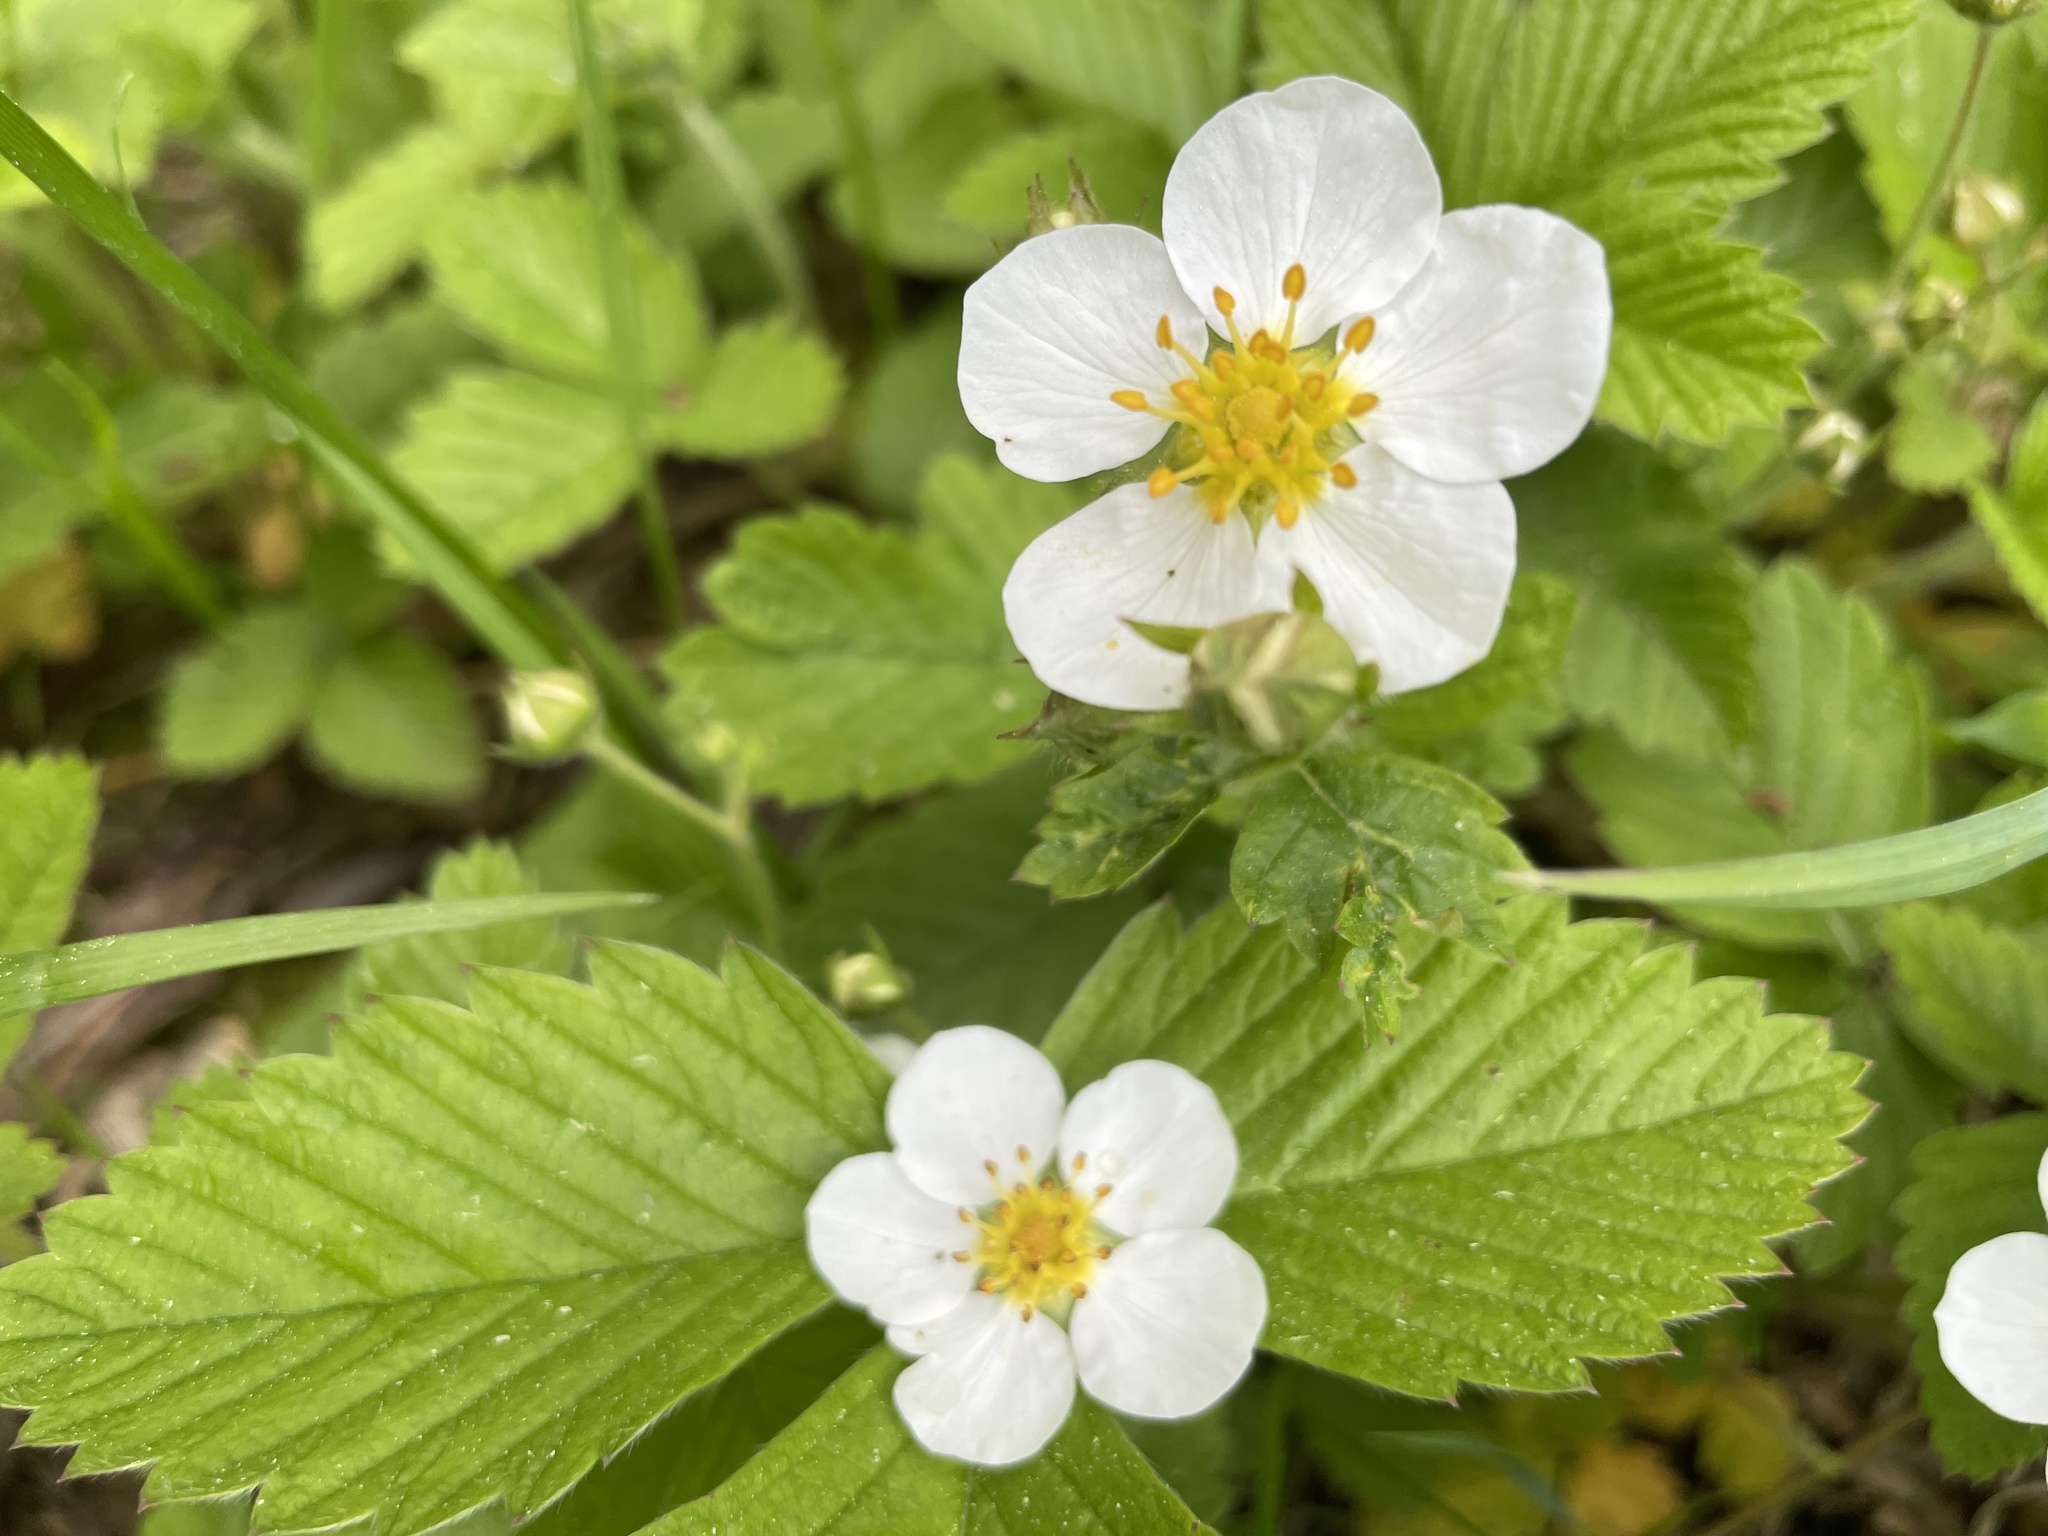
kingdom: Plantae
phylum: Tracheophyta
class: Magnoliopsida
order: Rosales
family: Rosaceae
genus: Fragaria
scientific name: Fragaria moschata
